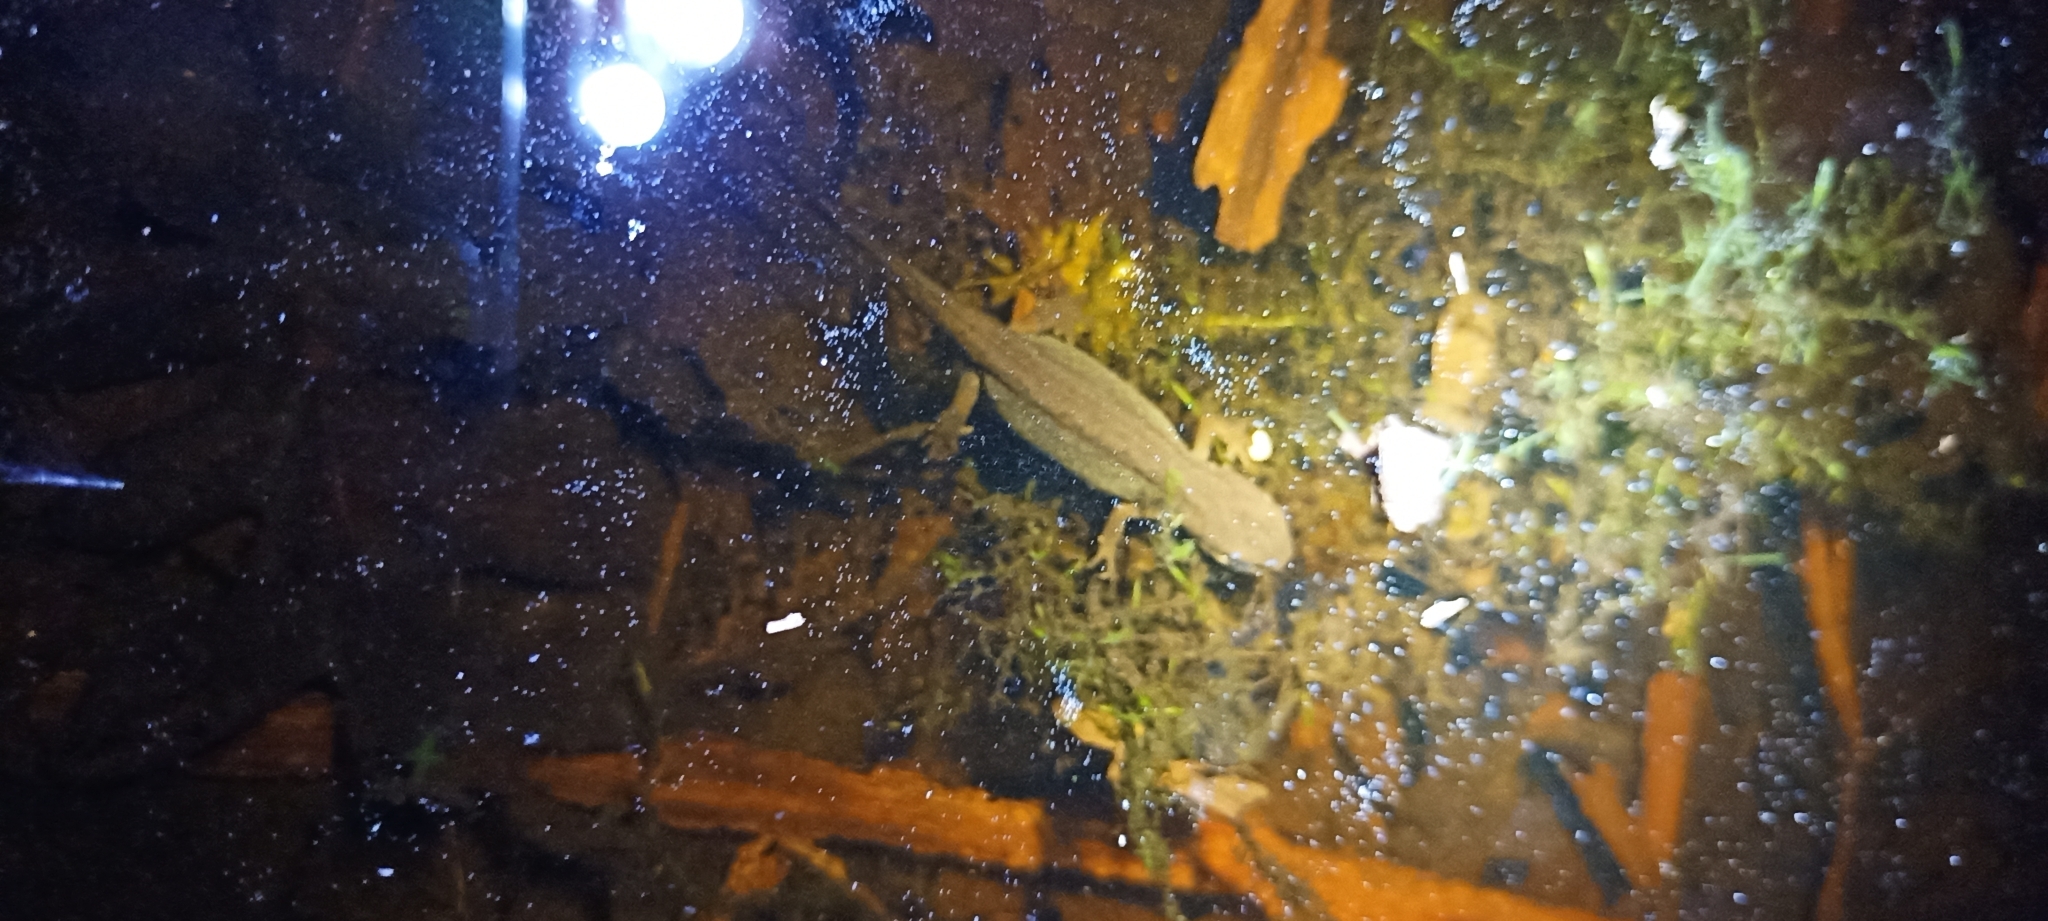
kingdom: Animalia
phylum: Chordata
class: Amphibia
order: Caudata
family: Salamandridae
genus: Lissotriton
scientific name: Lissotriton helveticus
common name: Palmate newt
